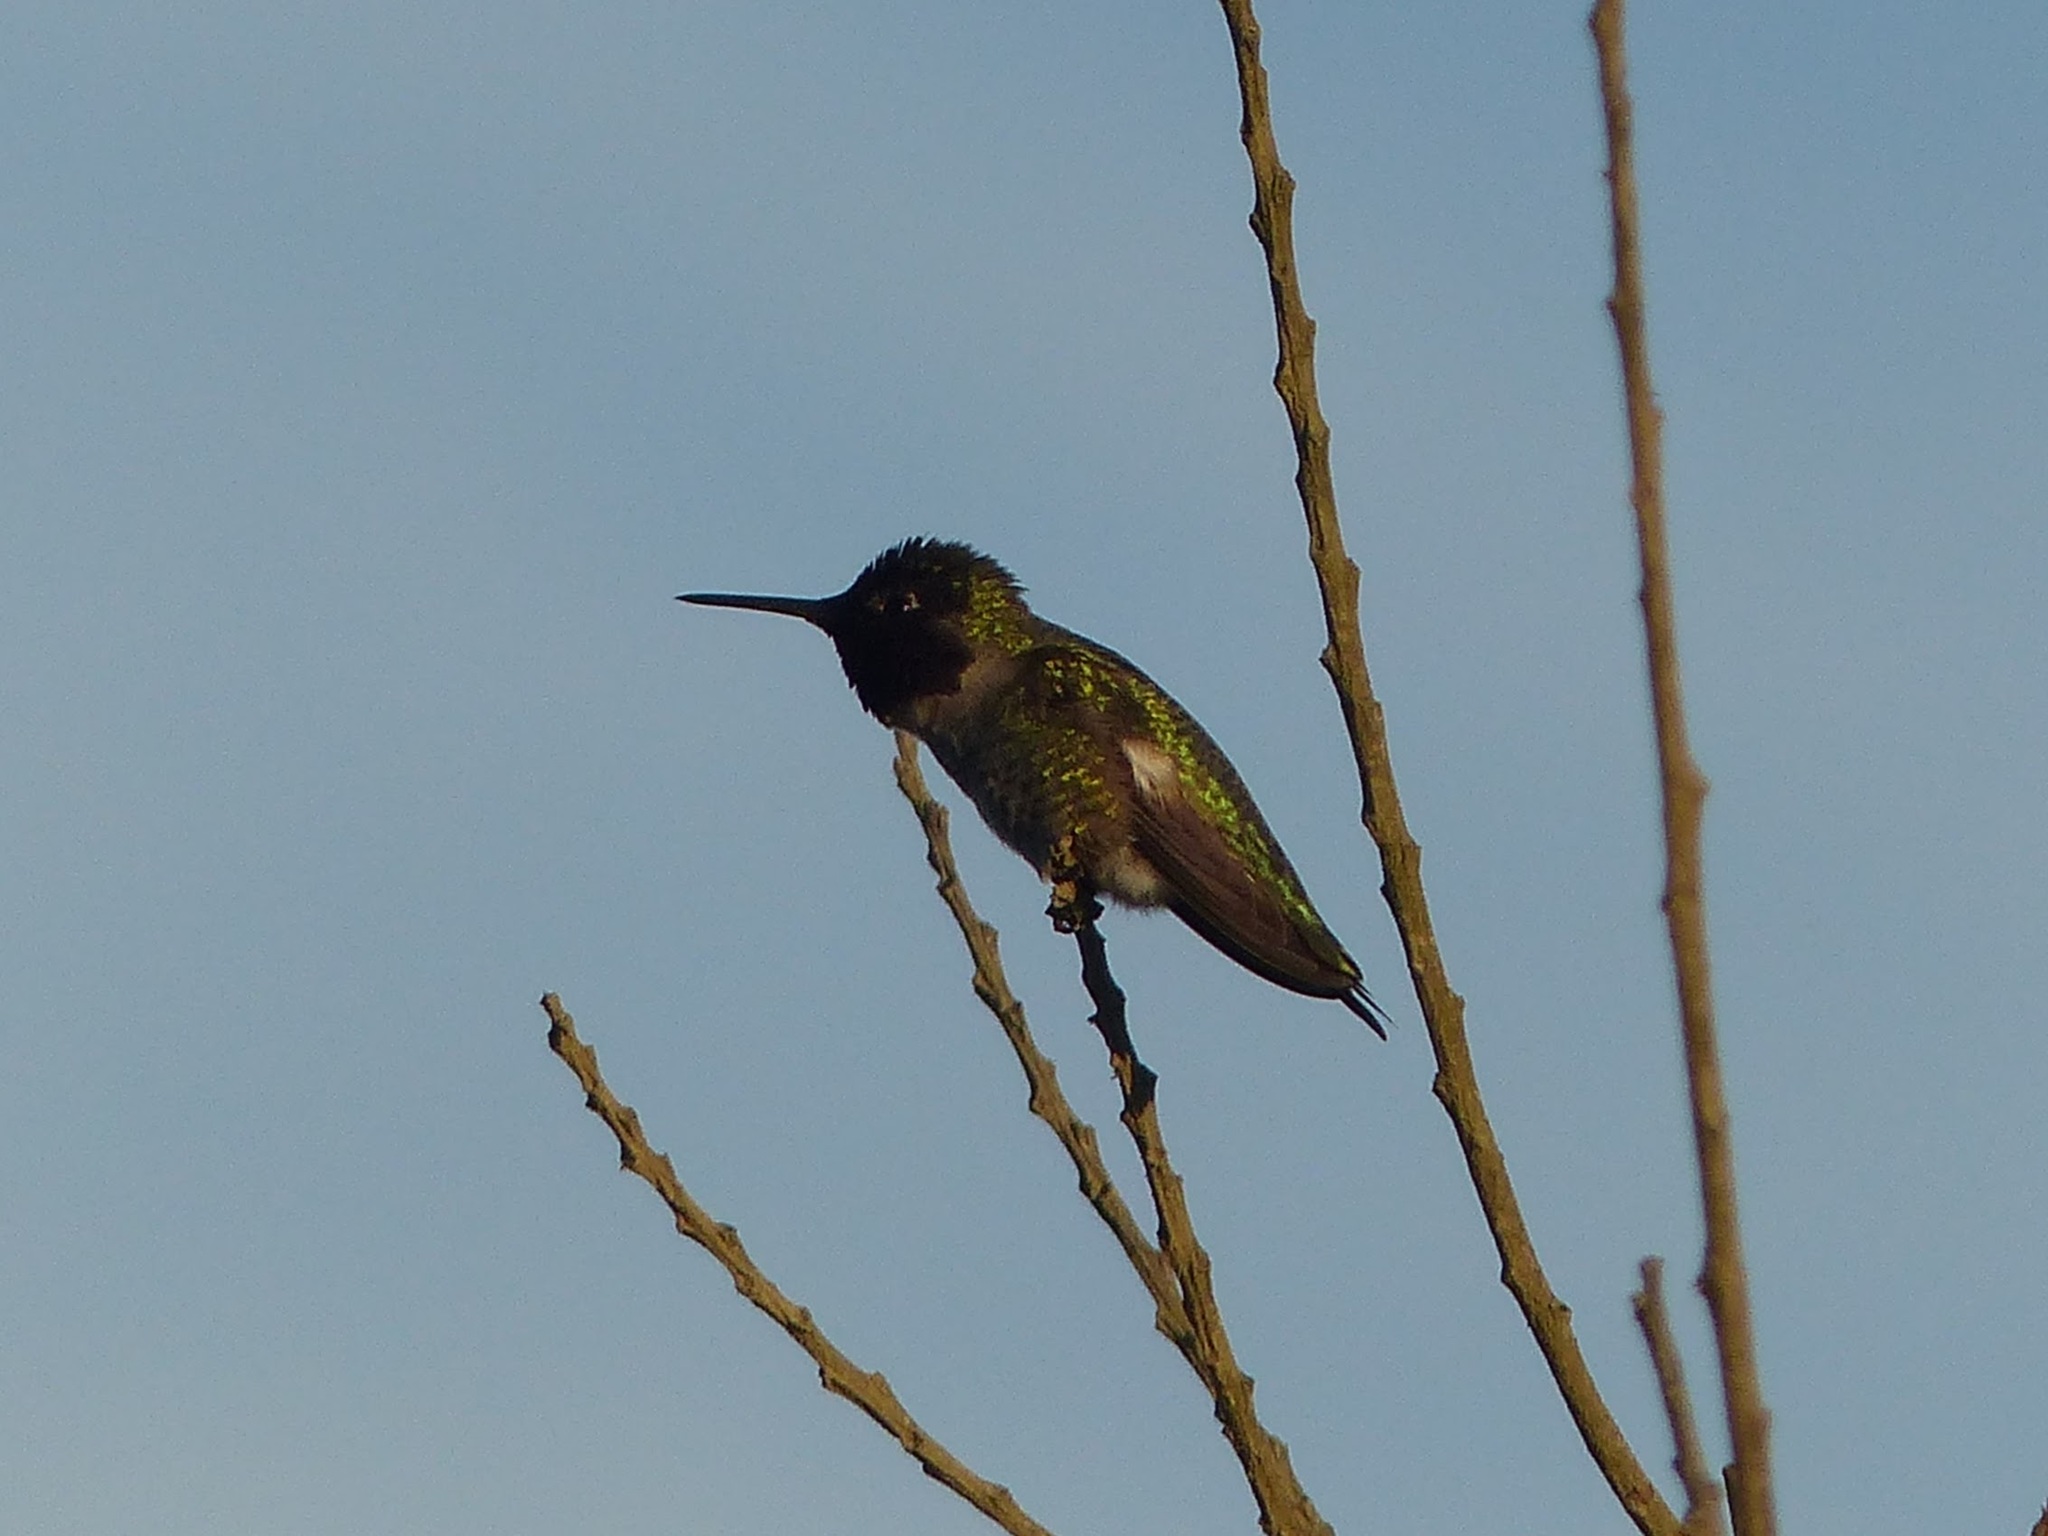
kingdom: Animalia
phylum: Chordata
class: Aves
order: Apodiformes
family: Trochilidae
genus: Calypte
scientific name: Calypte anna
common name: Anna's hummingbird
